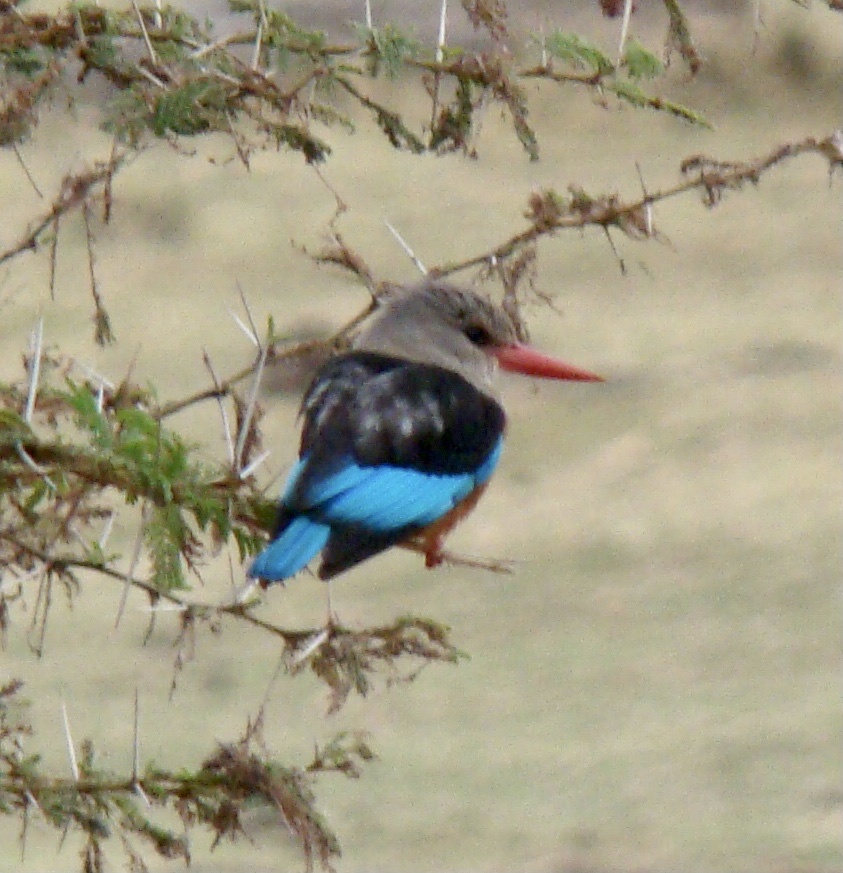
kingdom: Animalia
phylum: Chordata
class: Aves
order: Coraciiformes
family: Alcedinidae
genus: Halcyon
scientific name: Halcyon leucocephala
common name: Grey-headed kingfisher
